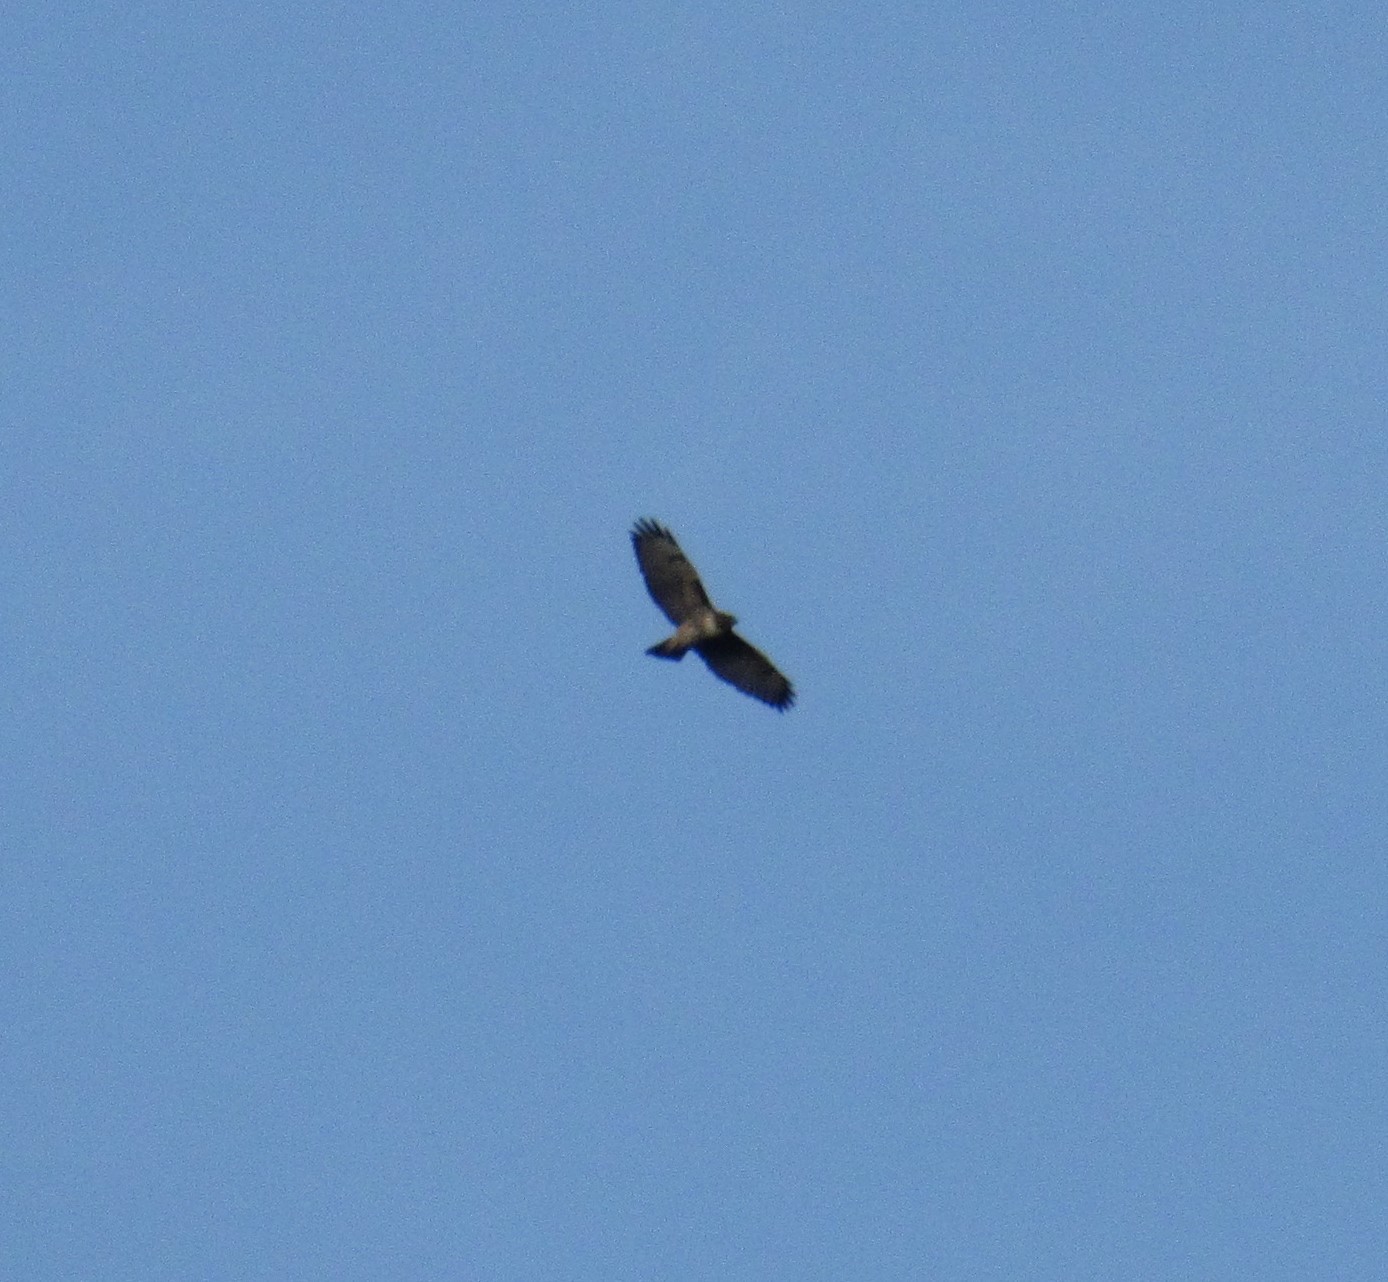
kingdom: Animalia
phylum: Chordata
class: Aves
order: Accipitriformes
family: Accipitridae
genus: Buteo
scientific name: Buteo jamaicensis
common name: Red-tailed hawk
